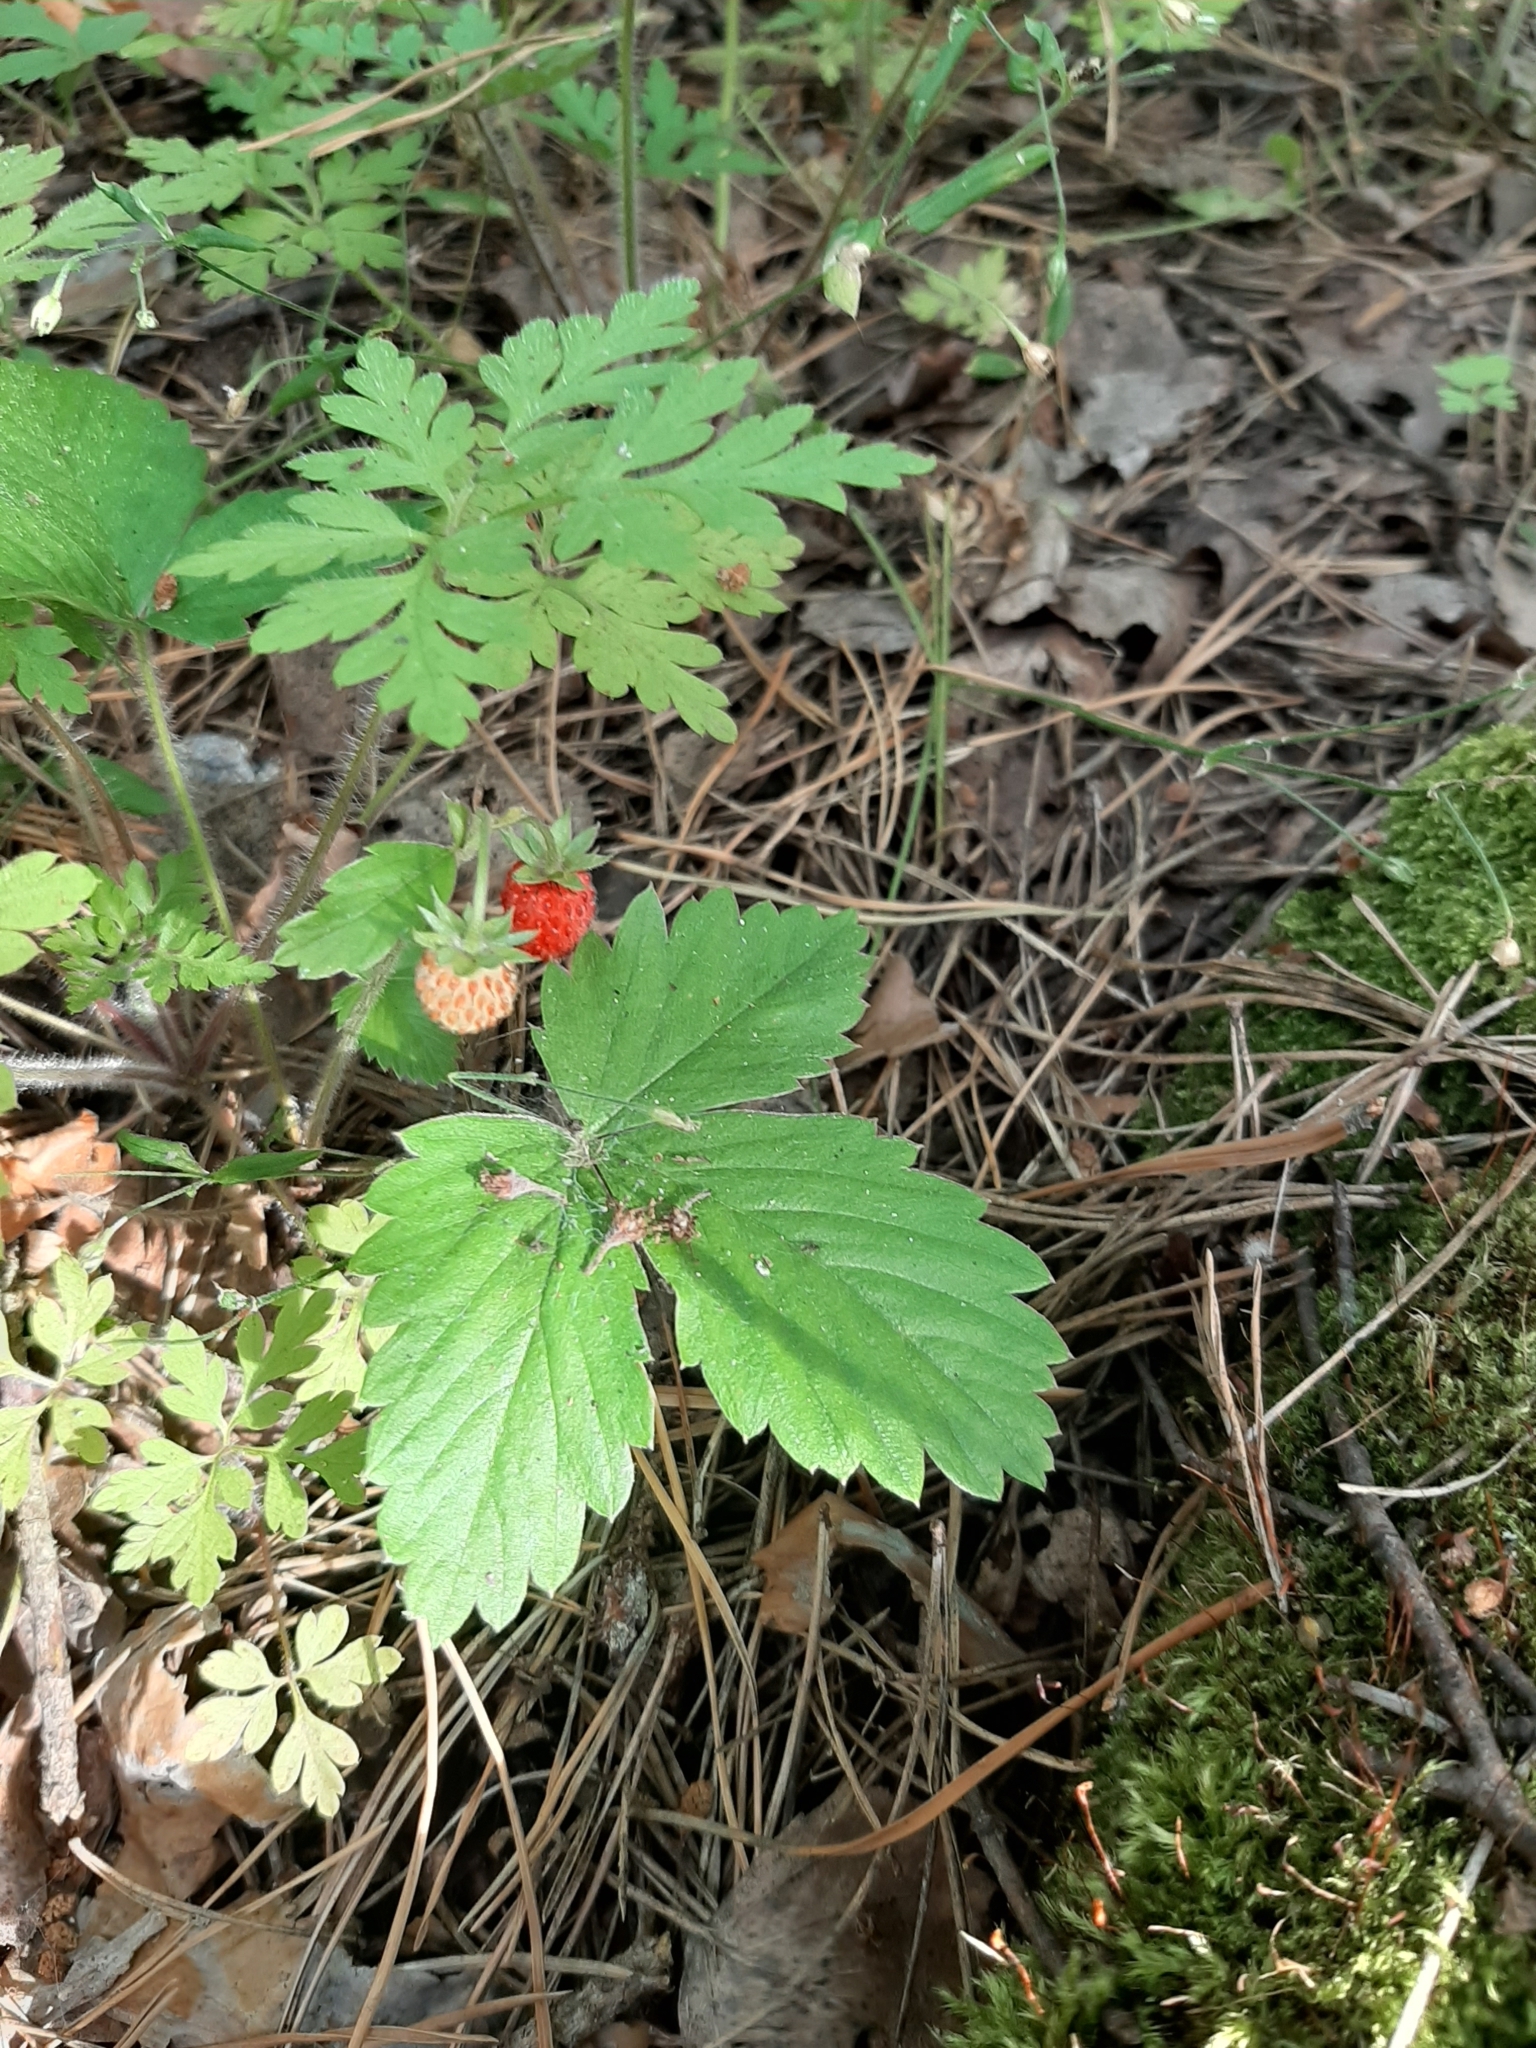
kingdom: Plantae
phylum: Tracheophyta
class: Magnoliopsida
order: Rosales
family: Rosaceae
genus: Fragaria
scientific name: Fragaria vesca
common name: Wild strawberry
